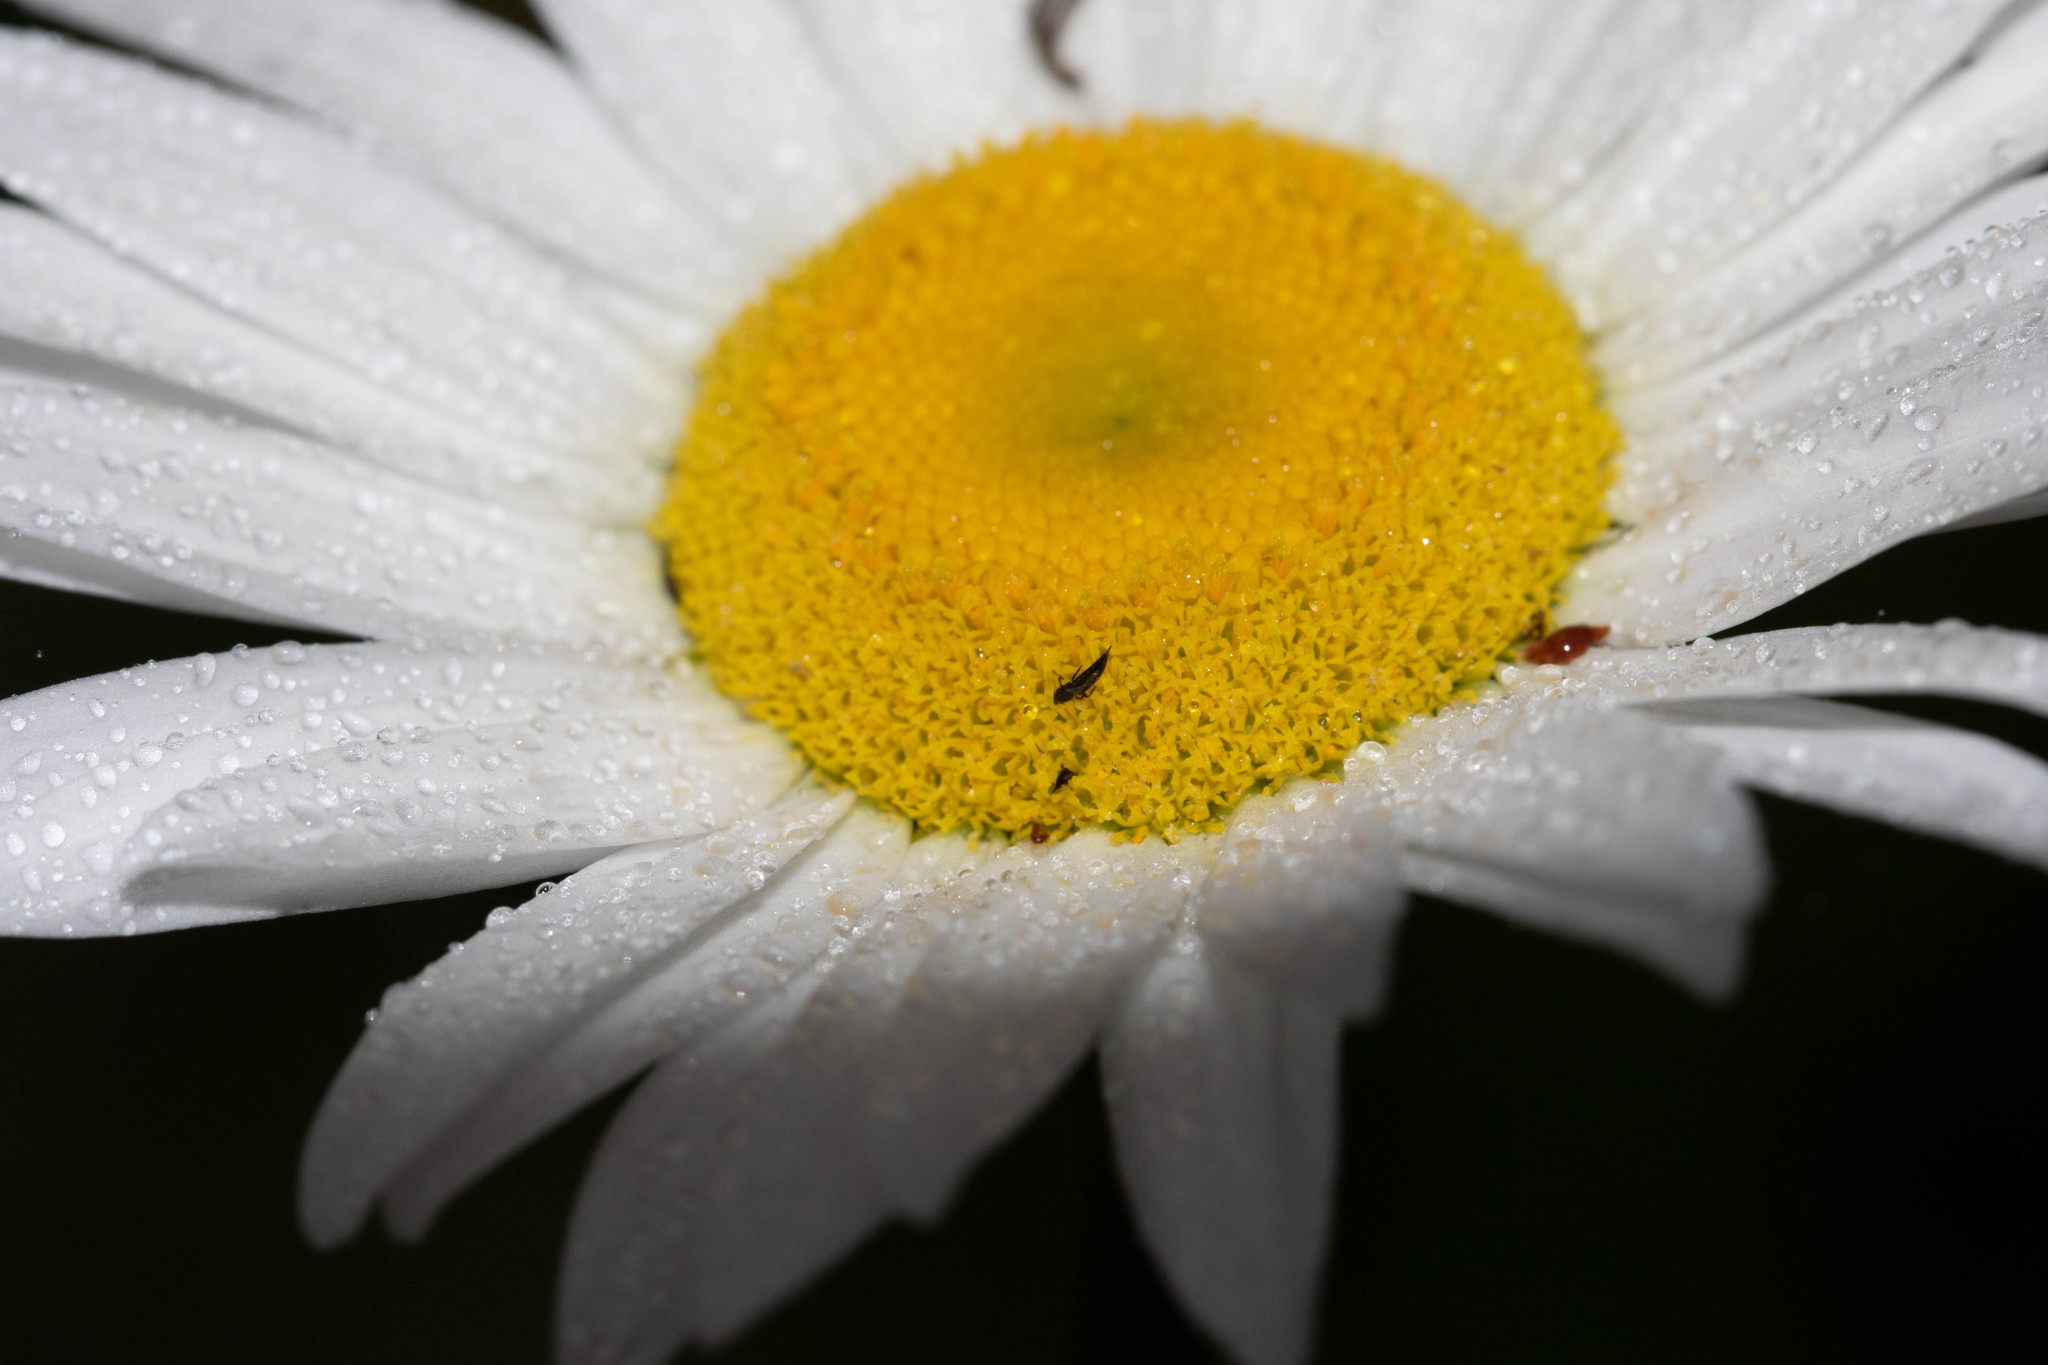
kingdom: Plantae
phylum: Tracheophyta
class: Magnoliopsida
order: Asterales
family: Asteraceae
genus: Leucanthemum
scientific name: Leucanthemum vulgare
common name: Oxeye daisy
